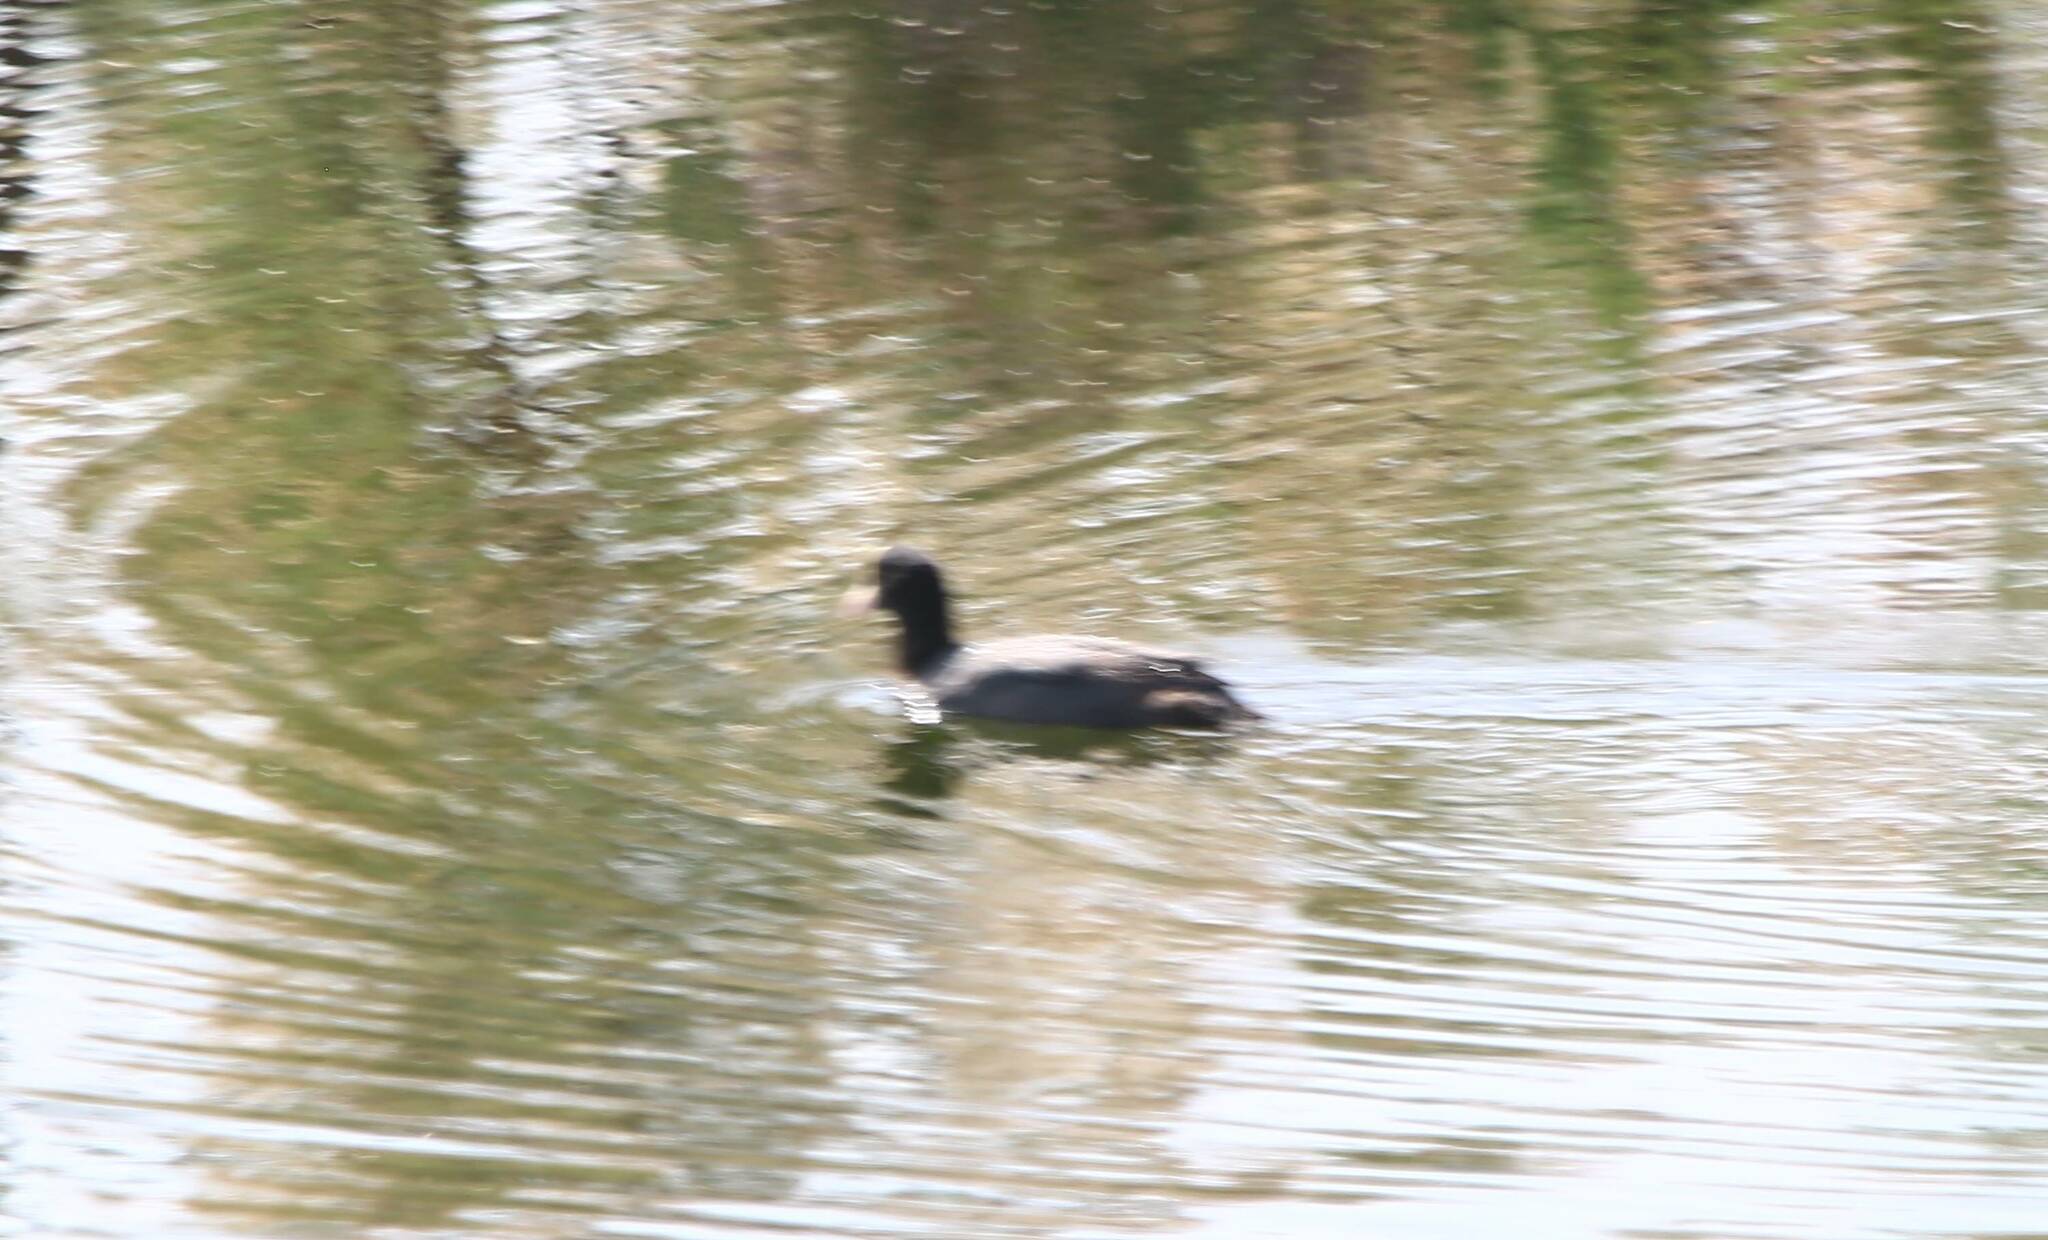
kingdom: Animalia
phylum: Chordata
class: Aves
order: Gruiformes
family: Rallidae
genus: Fulica
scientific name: Fulica atra
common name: Eurasian coot
